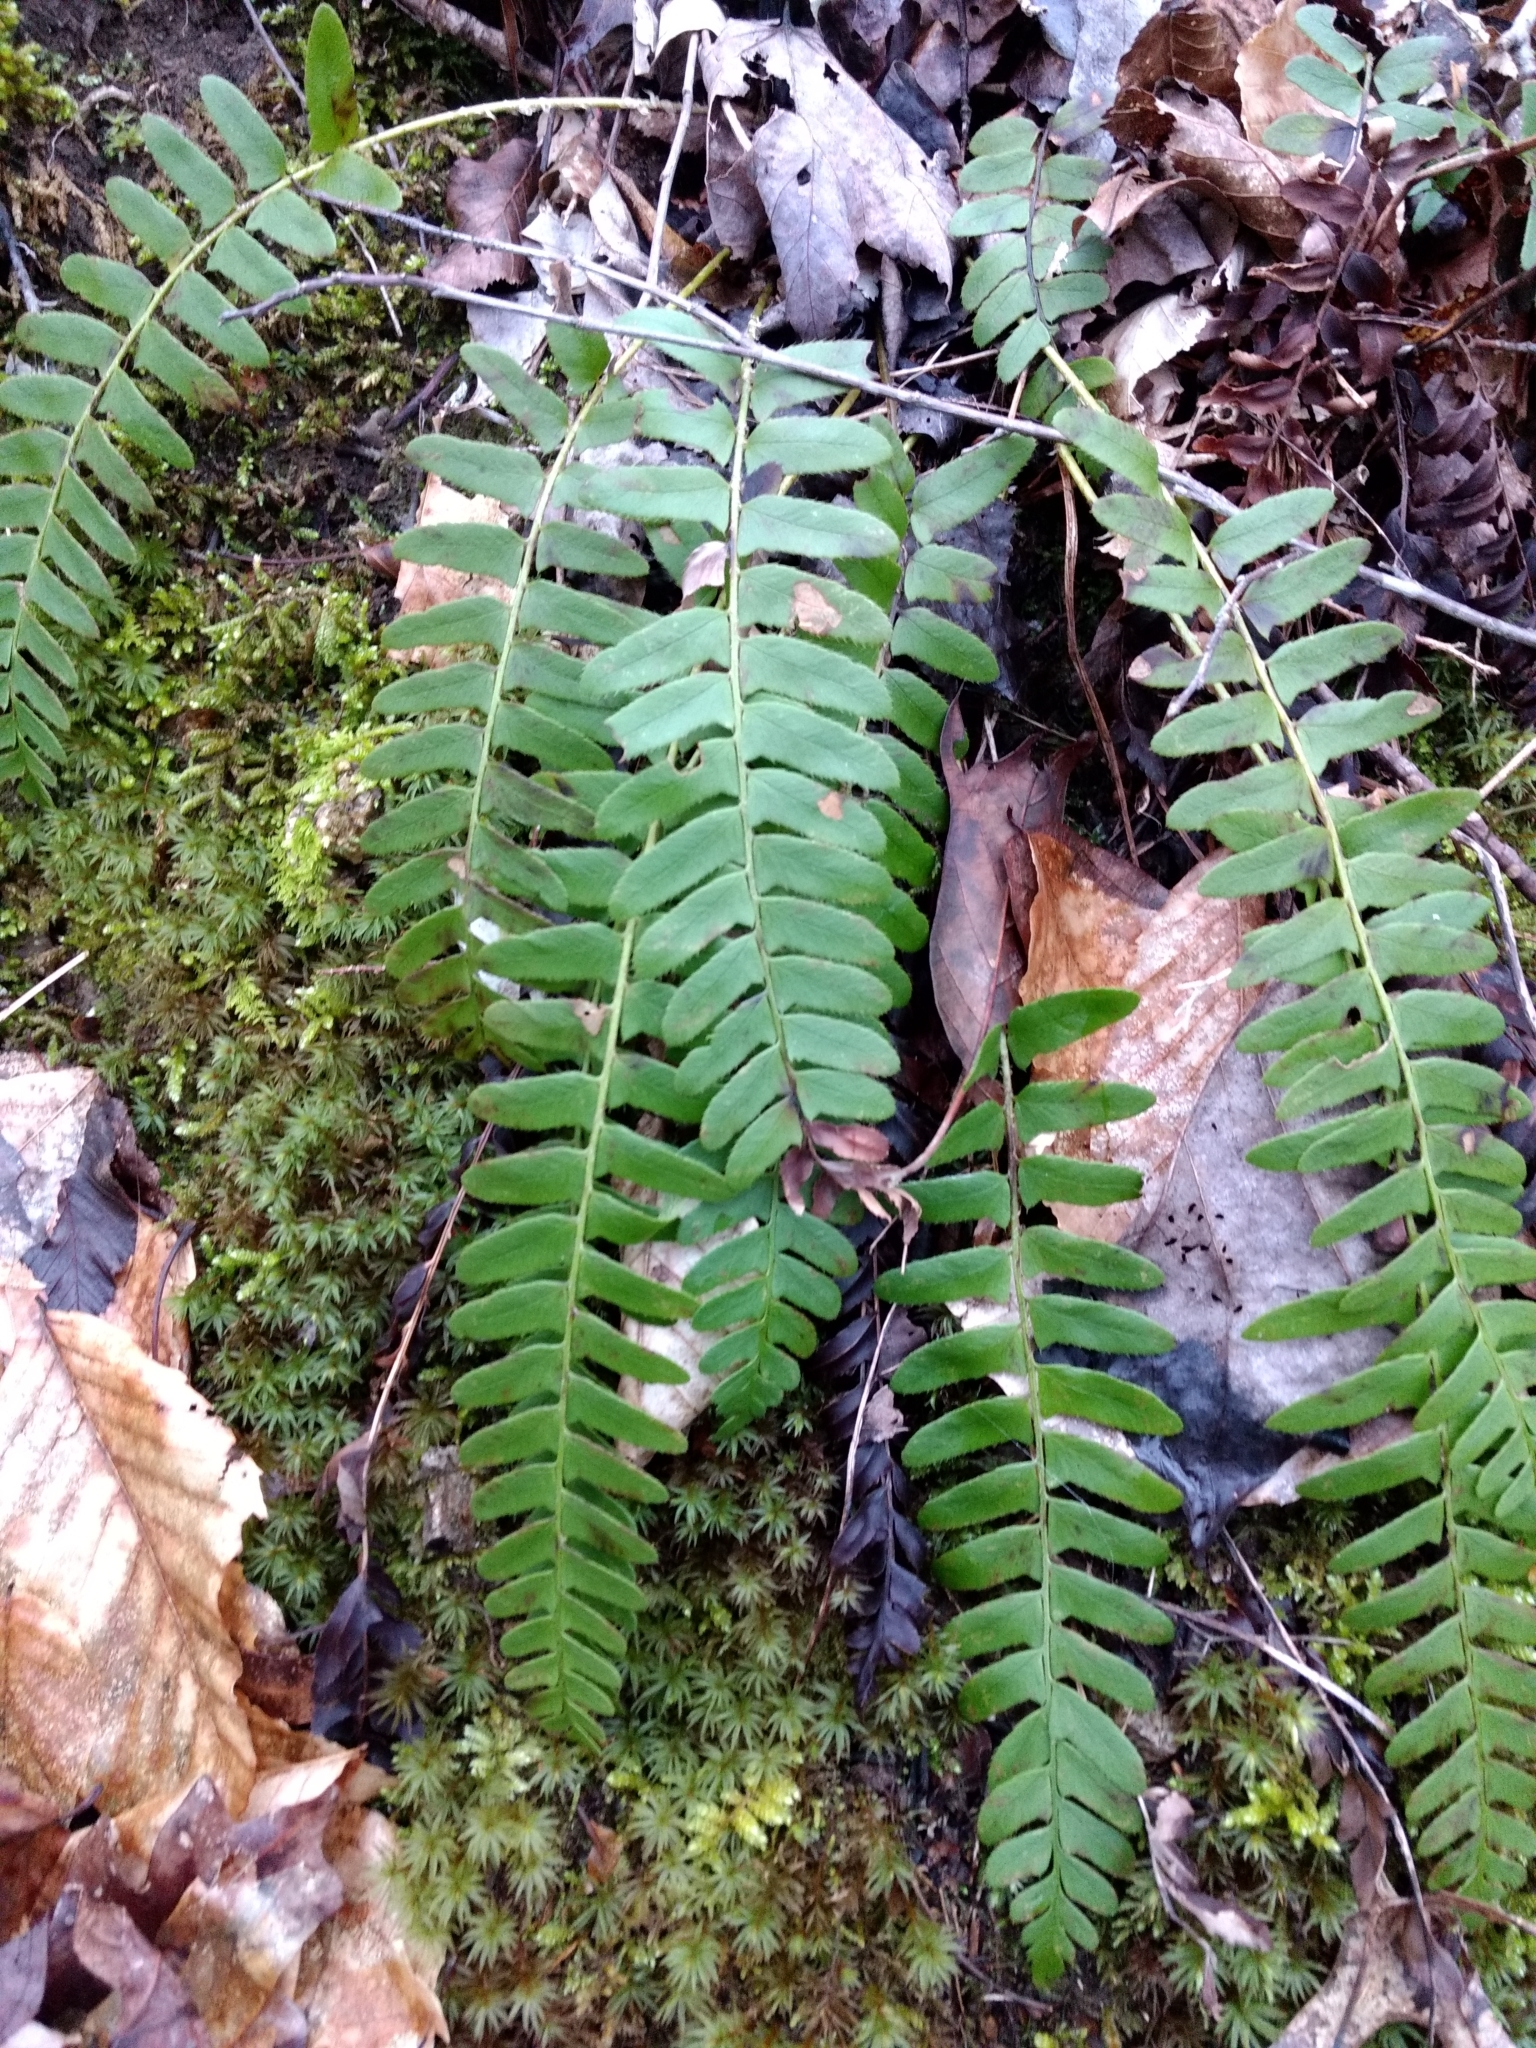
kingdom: Plantae
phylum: Tracheophyta
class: Polypodiopsida
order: Polypodiales
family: Dryopteridaceae
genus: Polystichum
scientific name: Polystichum acrostichoides
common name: Christmas fern
